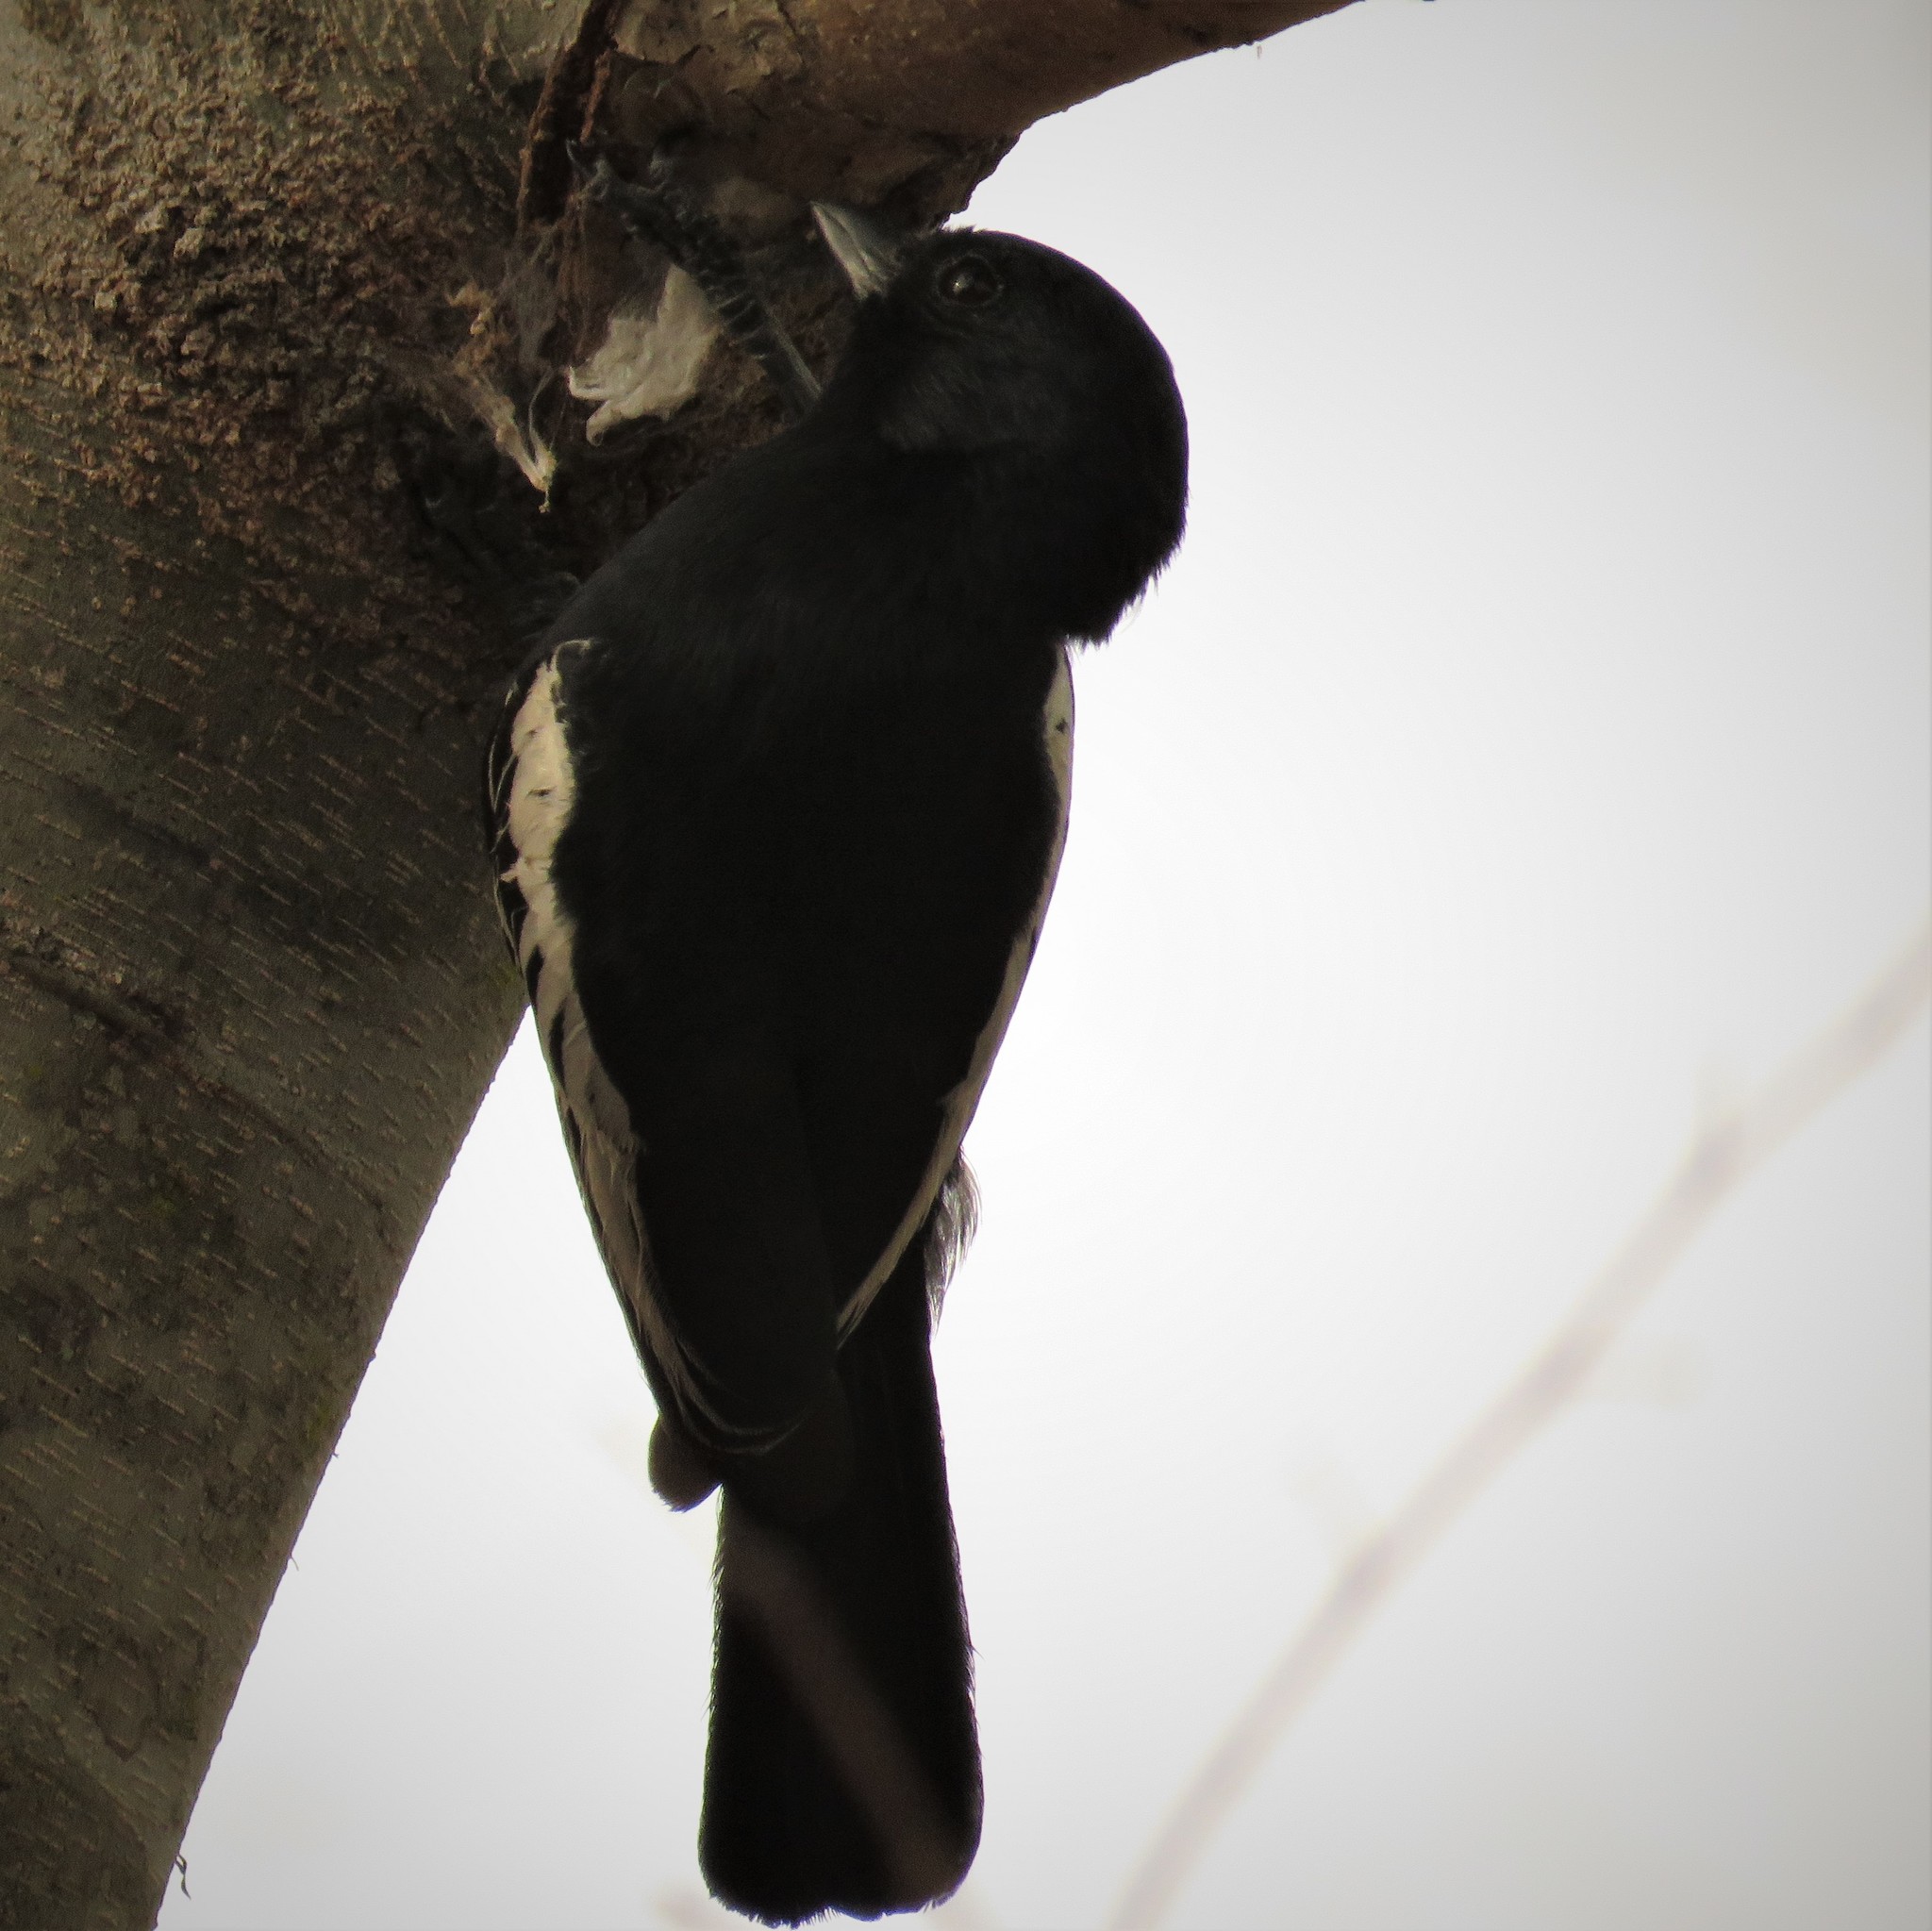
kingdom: Animalia
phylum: Chordata
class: Aves
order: Passeriformes
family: Paridae
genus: Parus
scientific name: Parus niger
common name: Southern black tit
